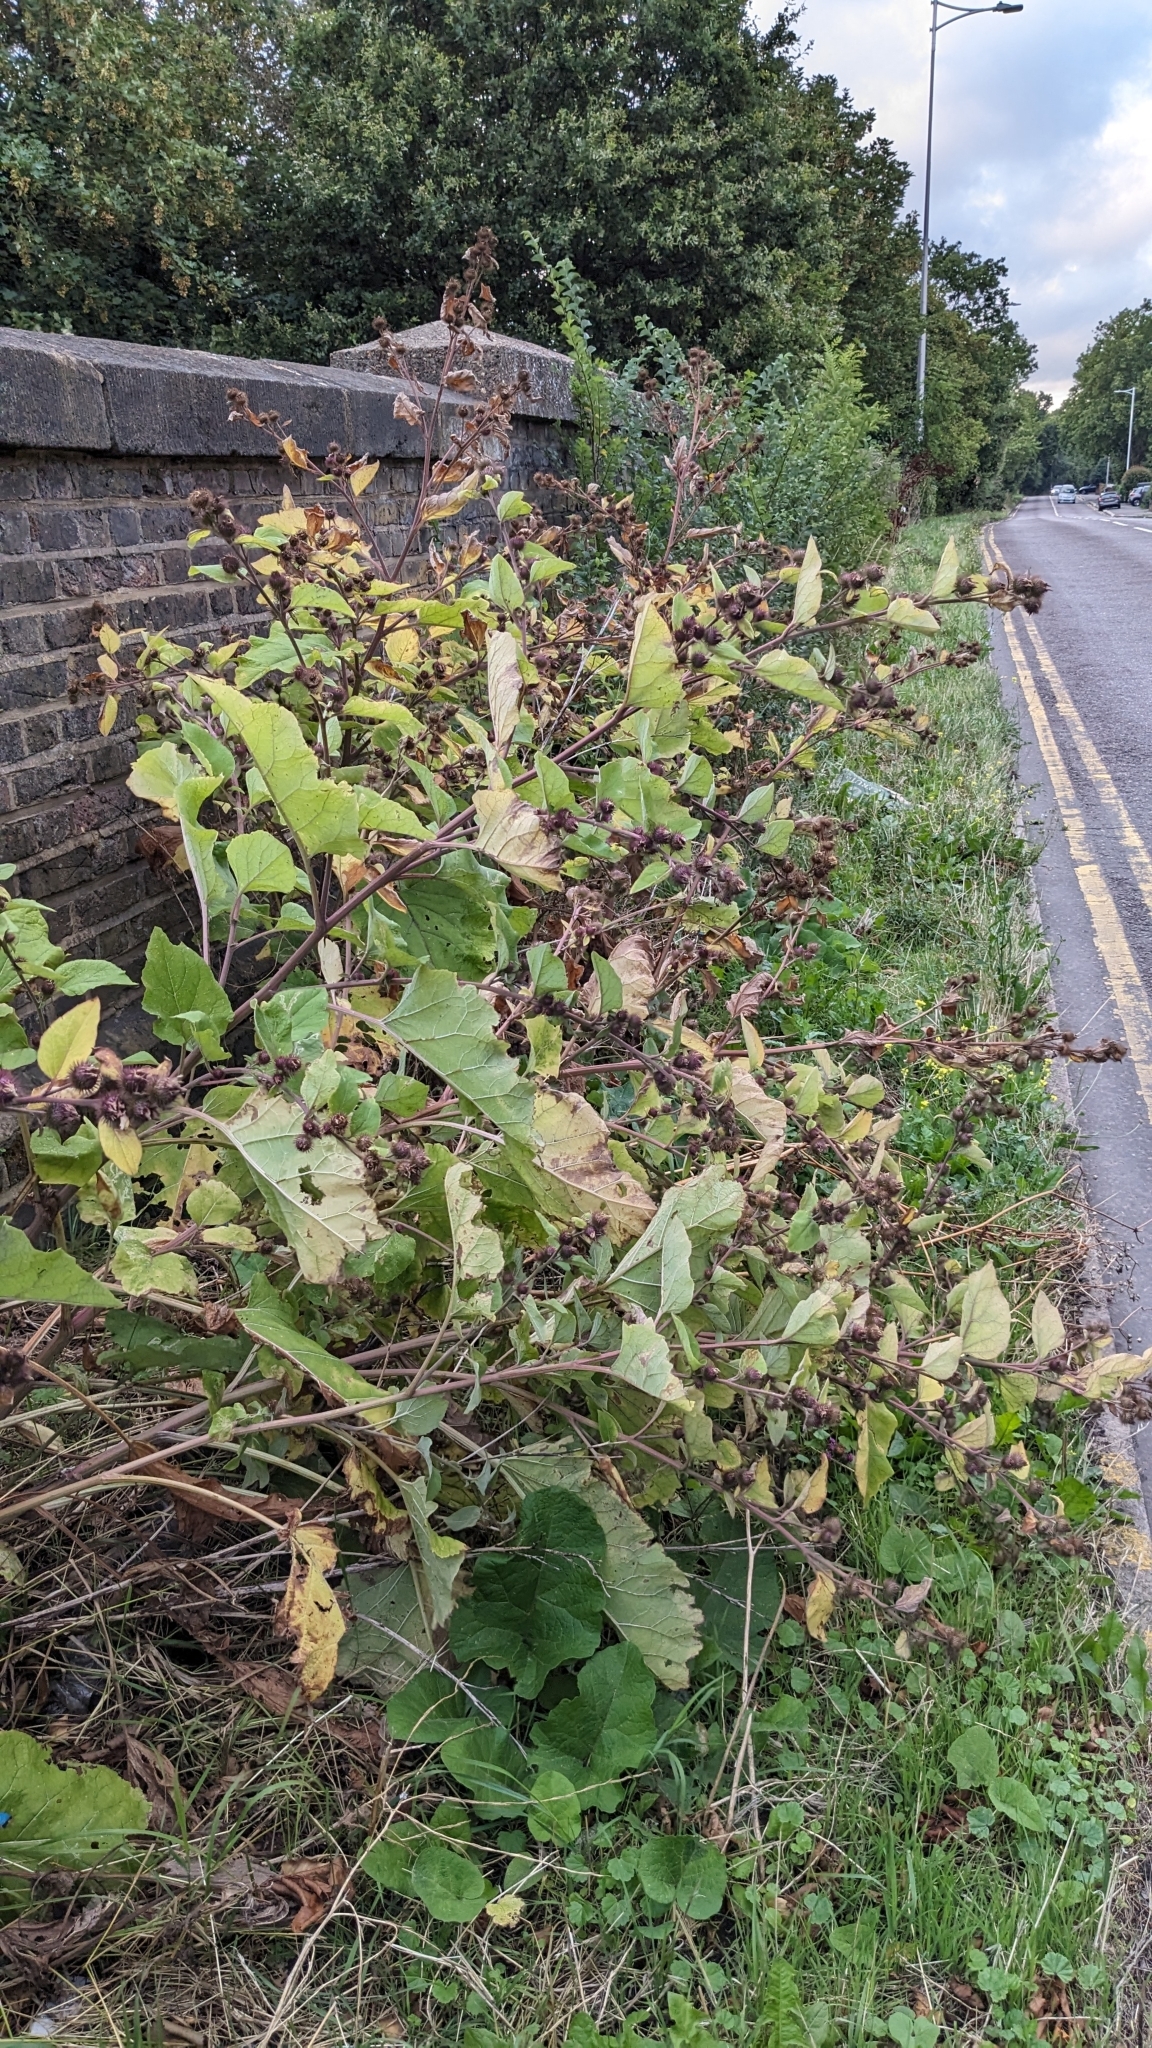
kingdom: Plantae
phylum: Tracheophyta
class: Magnoliopsida
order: Asterales
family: Asteraceae
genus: Arctium
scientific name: Arctium minus
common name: Lesser burdock
